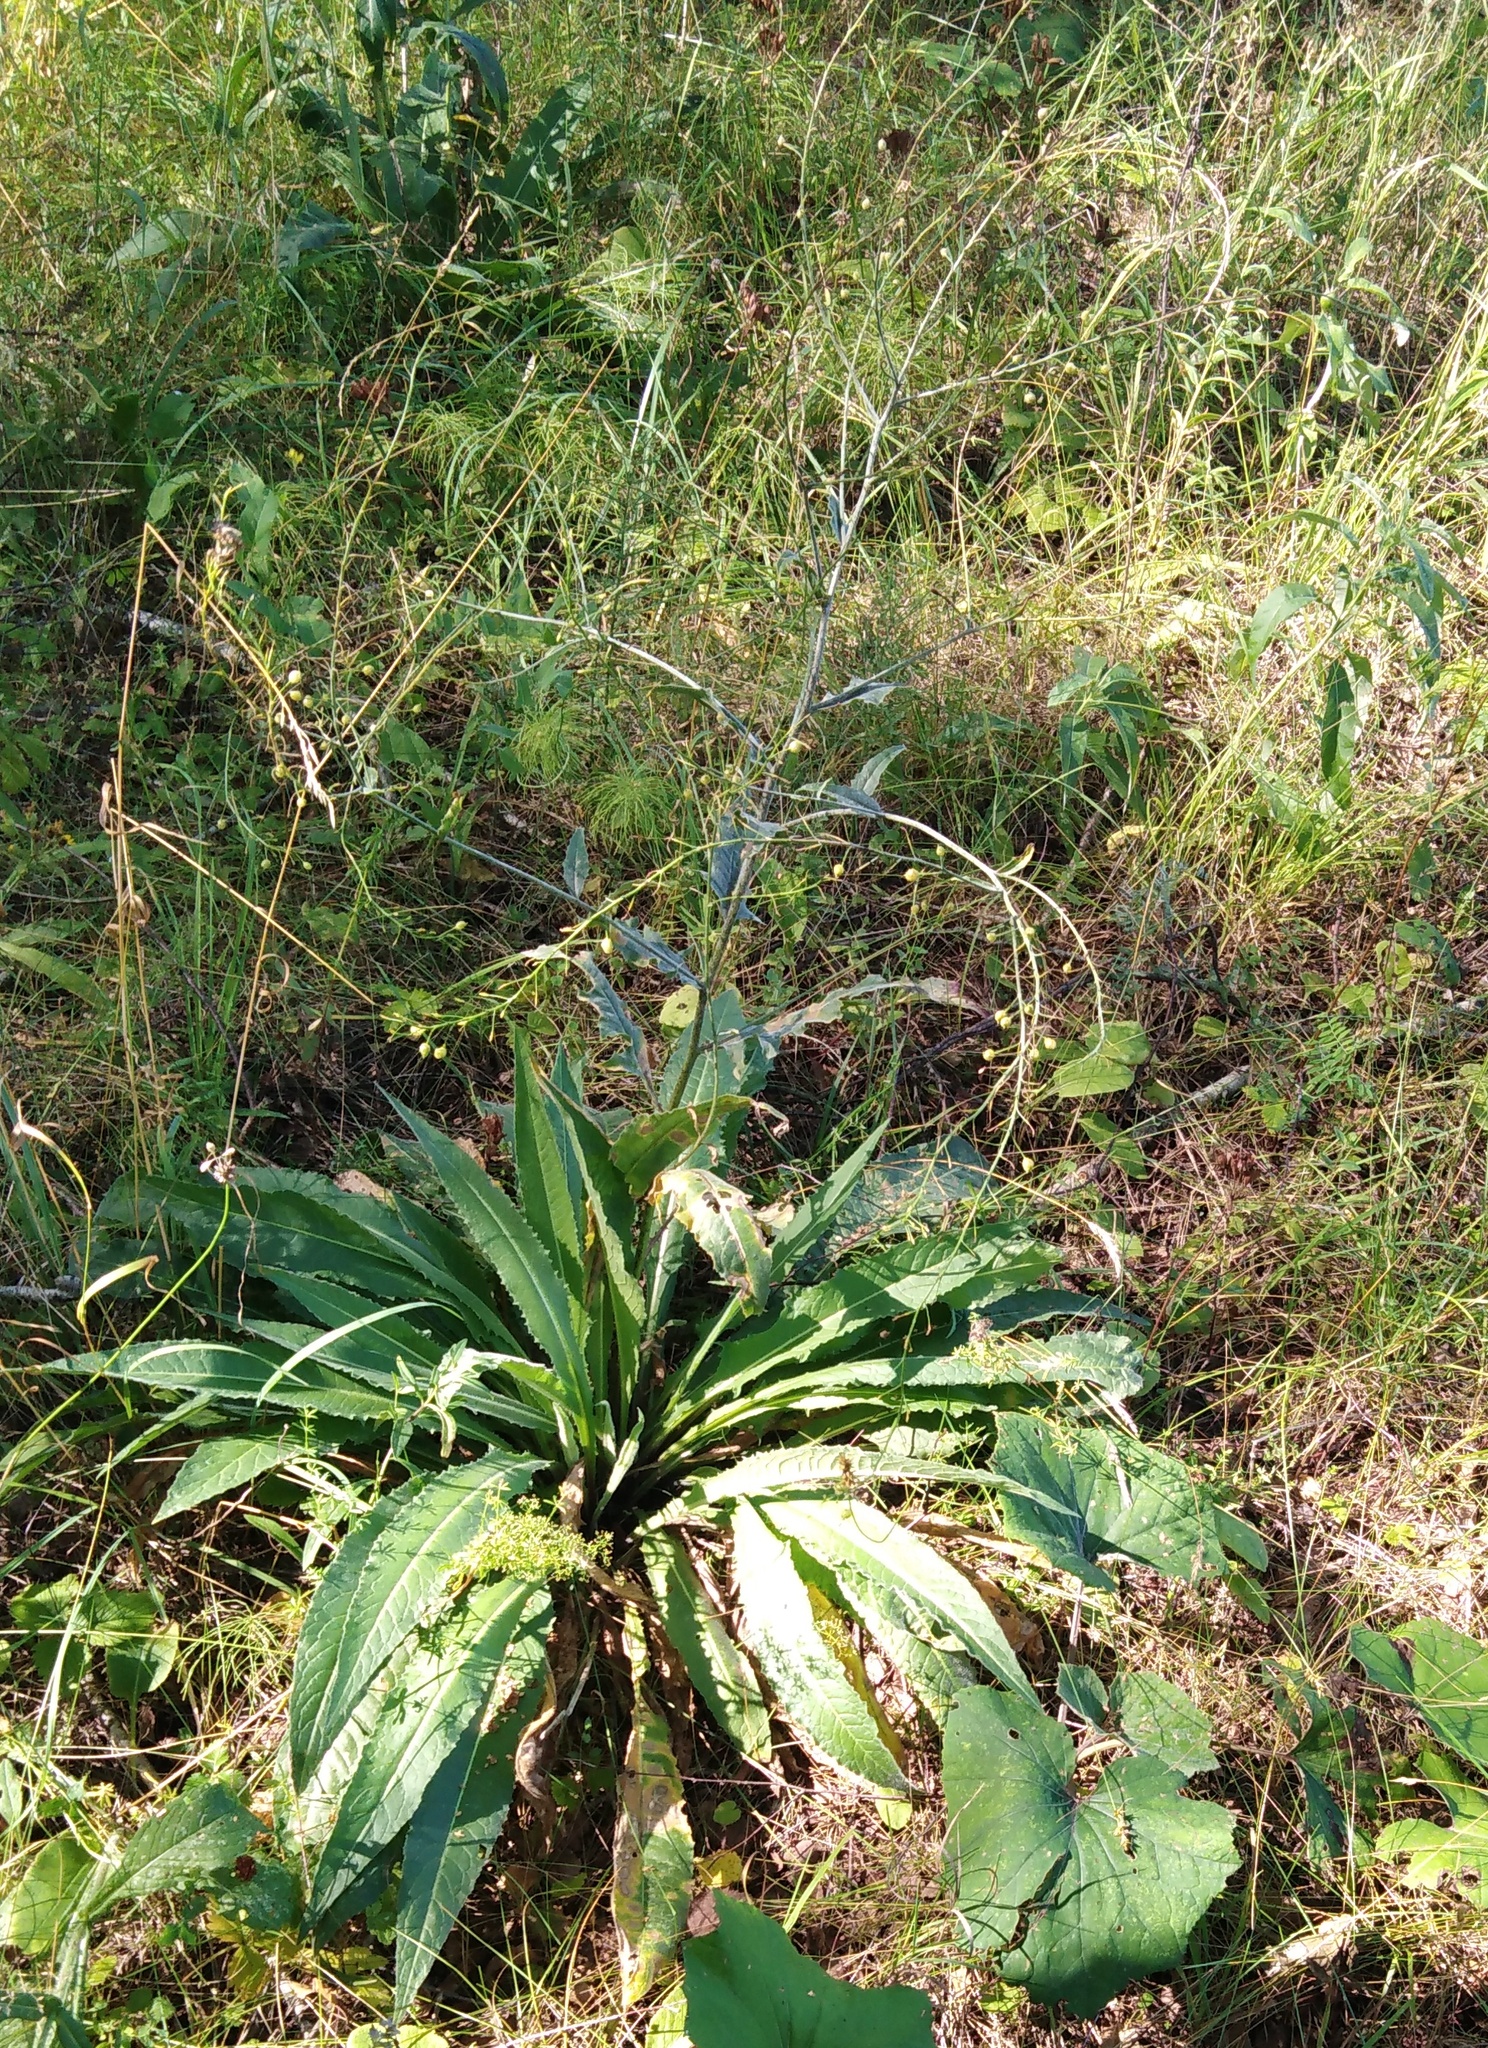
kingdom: Plantae
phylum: Tracheophyta
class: Magnoliopsida
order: Brassicales
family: Brassicaceae
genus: Bunias
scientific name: Bunias orientalis
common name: Warty-cabbage
